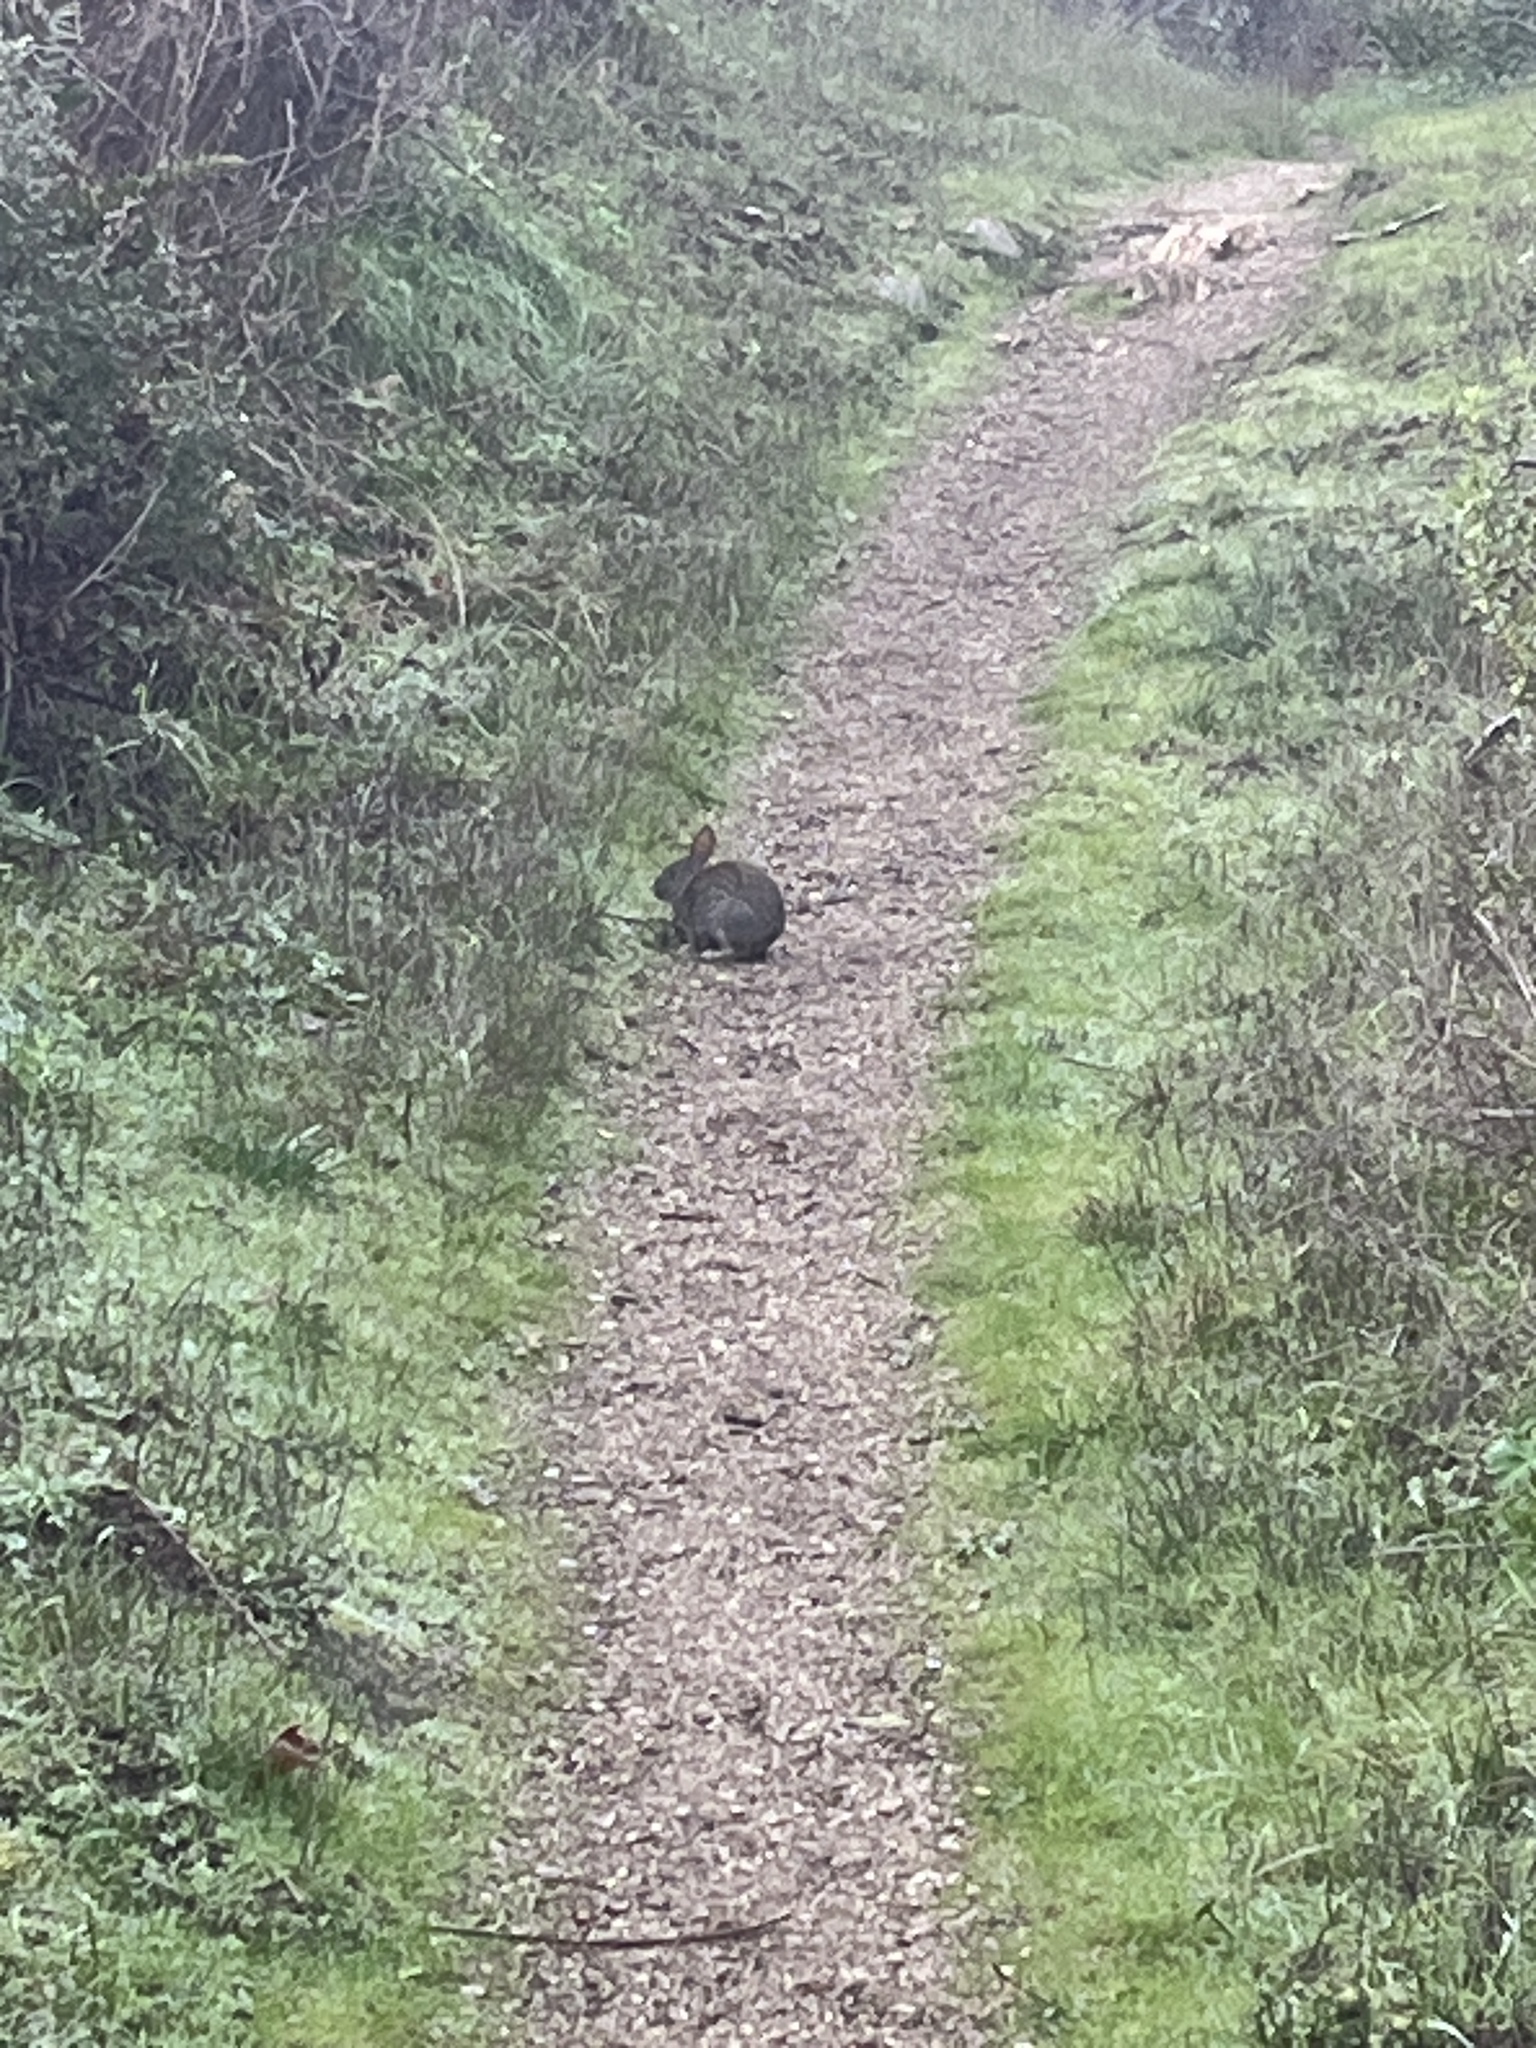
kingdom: Animalia
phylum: Chordata
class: Mammalia
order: Lagomorpha
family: Leporidae
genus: Sylvilagus
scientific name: Sylvilagus bachmani
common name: Brush rabbit
